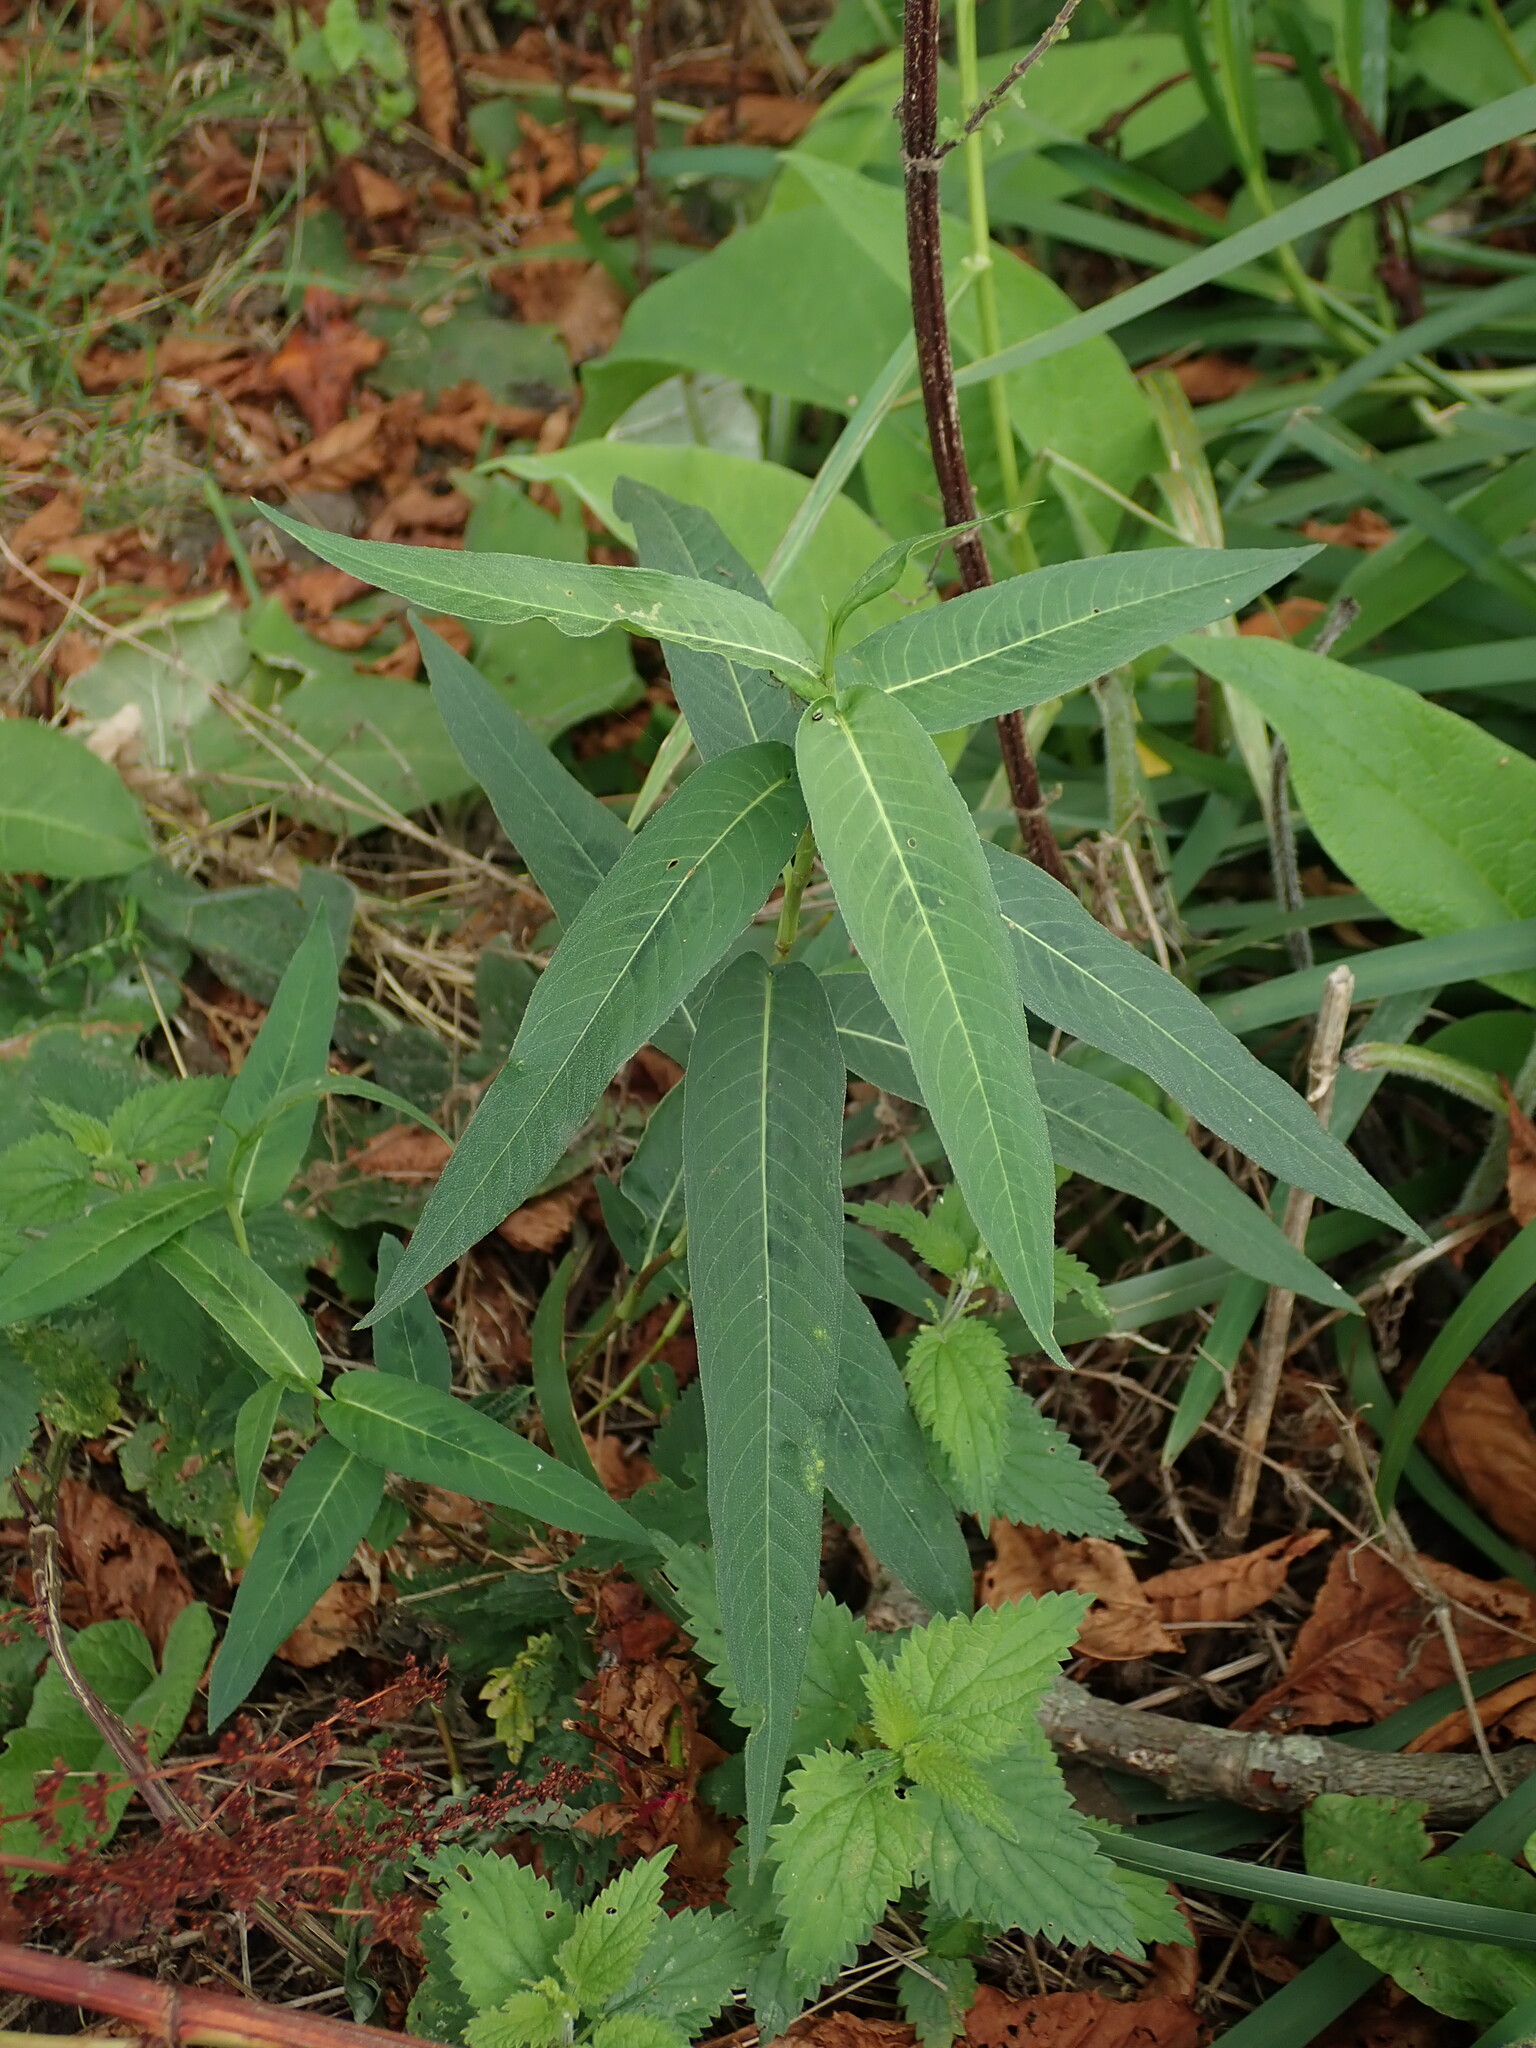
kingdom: Plantae
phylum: Tracheophyta
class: Magnoliopsida
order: Caryophyllales
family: Polygonaceae
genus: Persicaria
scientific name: Persicaria amphibia
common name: Amphibious bistort
